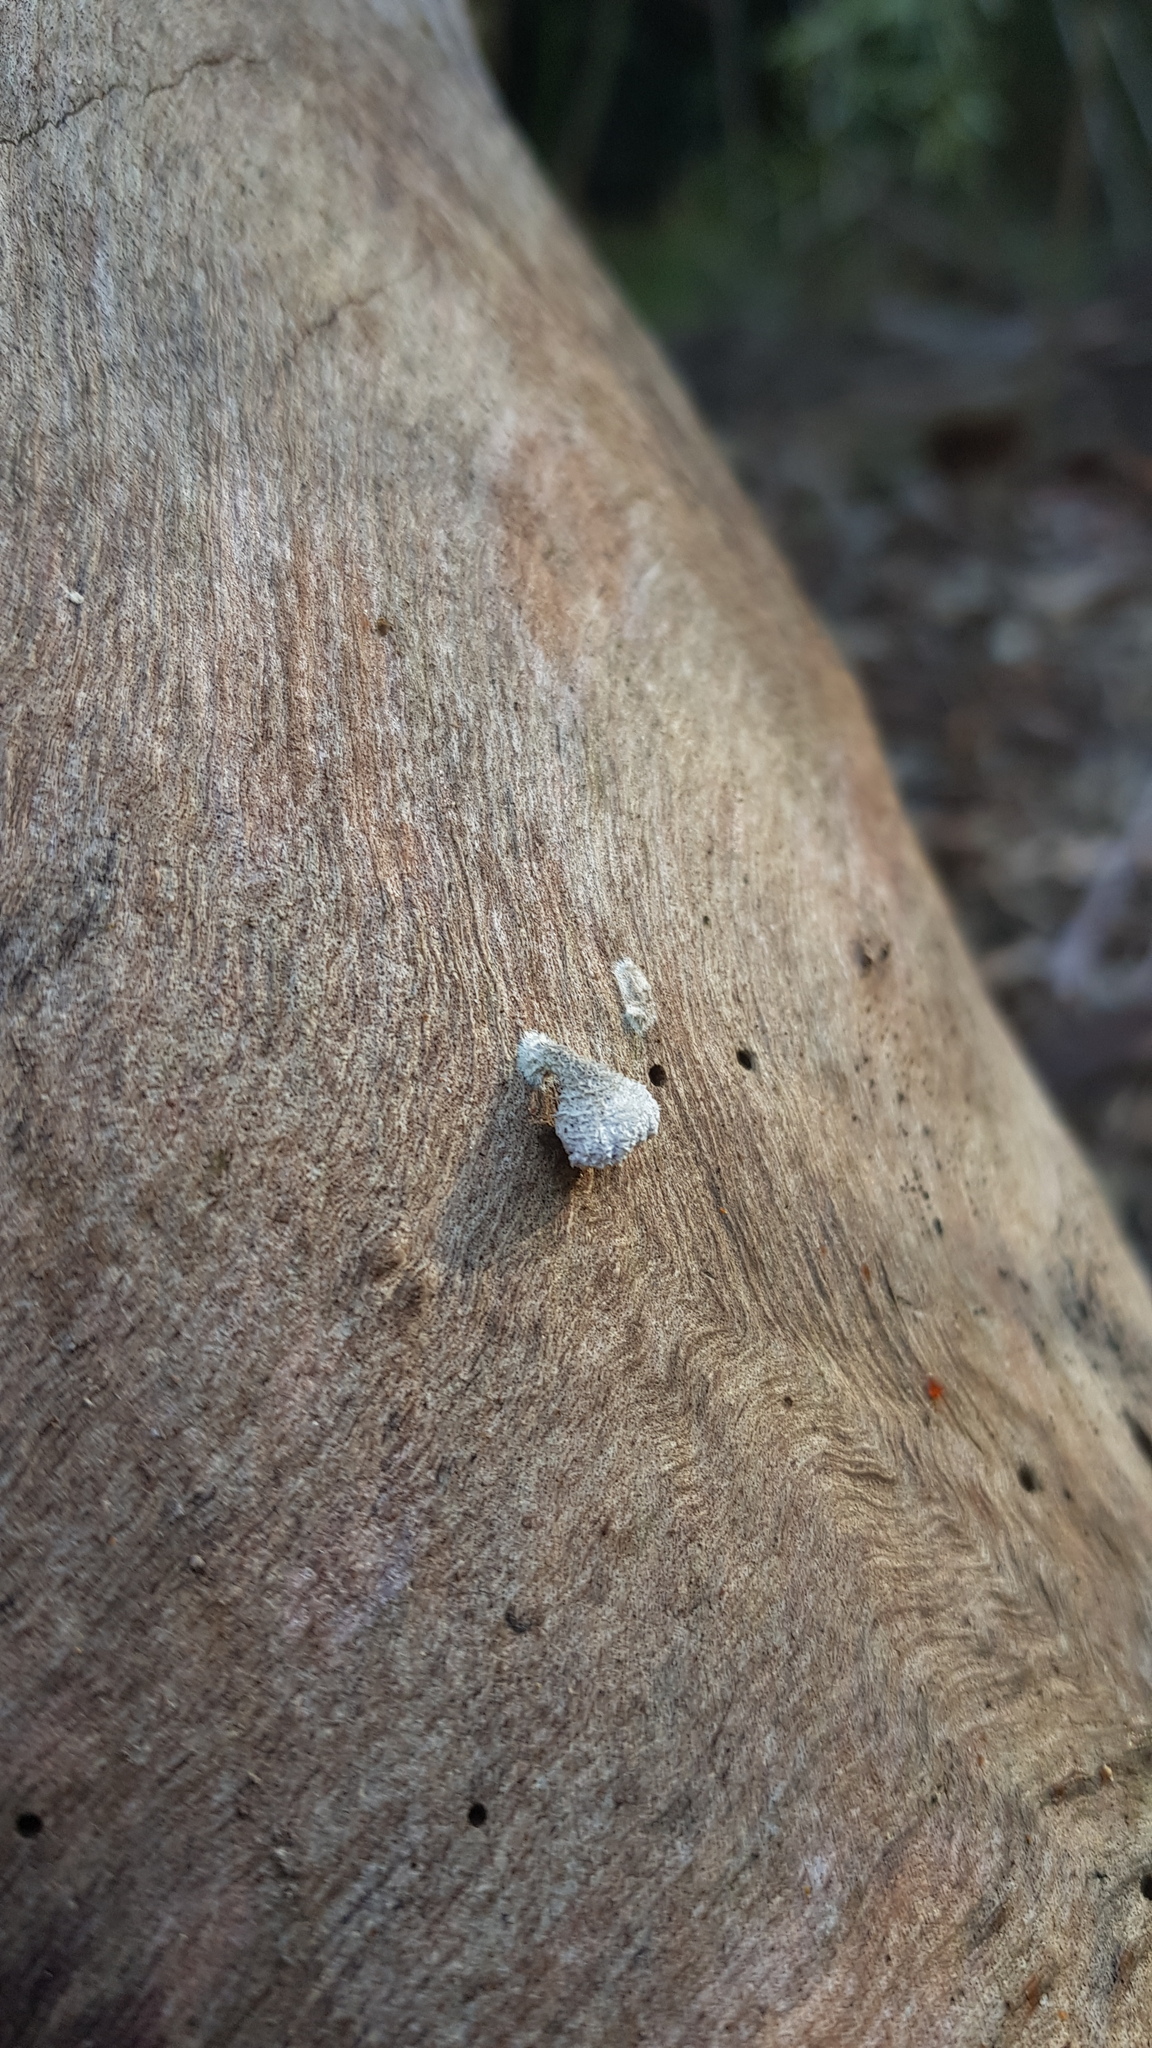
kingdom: Fungi
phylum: Basidiomycota
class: Agaricomycetes
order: Agaricales
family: Schizophyllaceae
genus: Schizophyllum
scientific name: Schizophyllum commune
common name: Common porecrust
